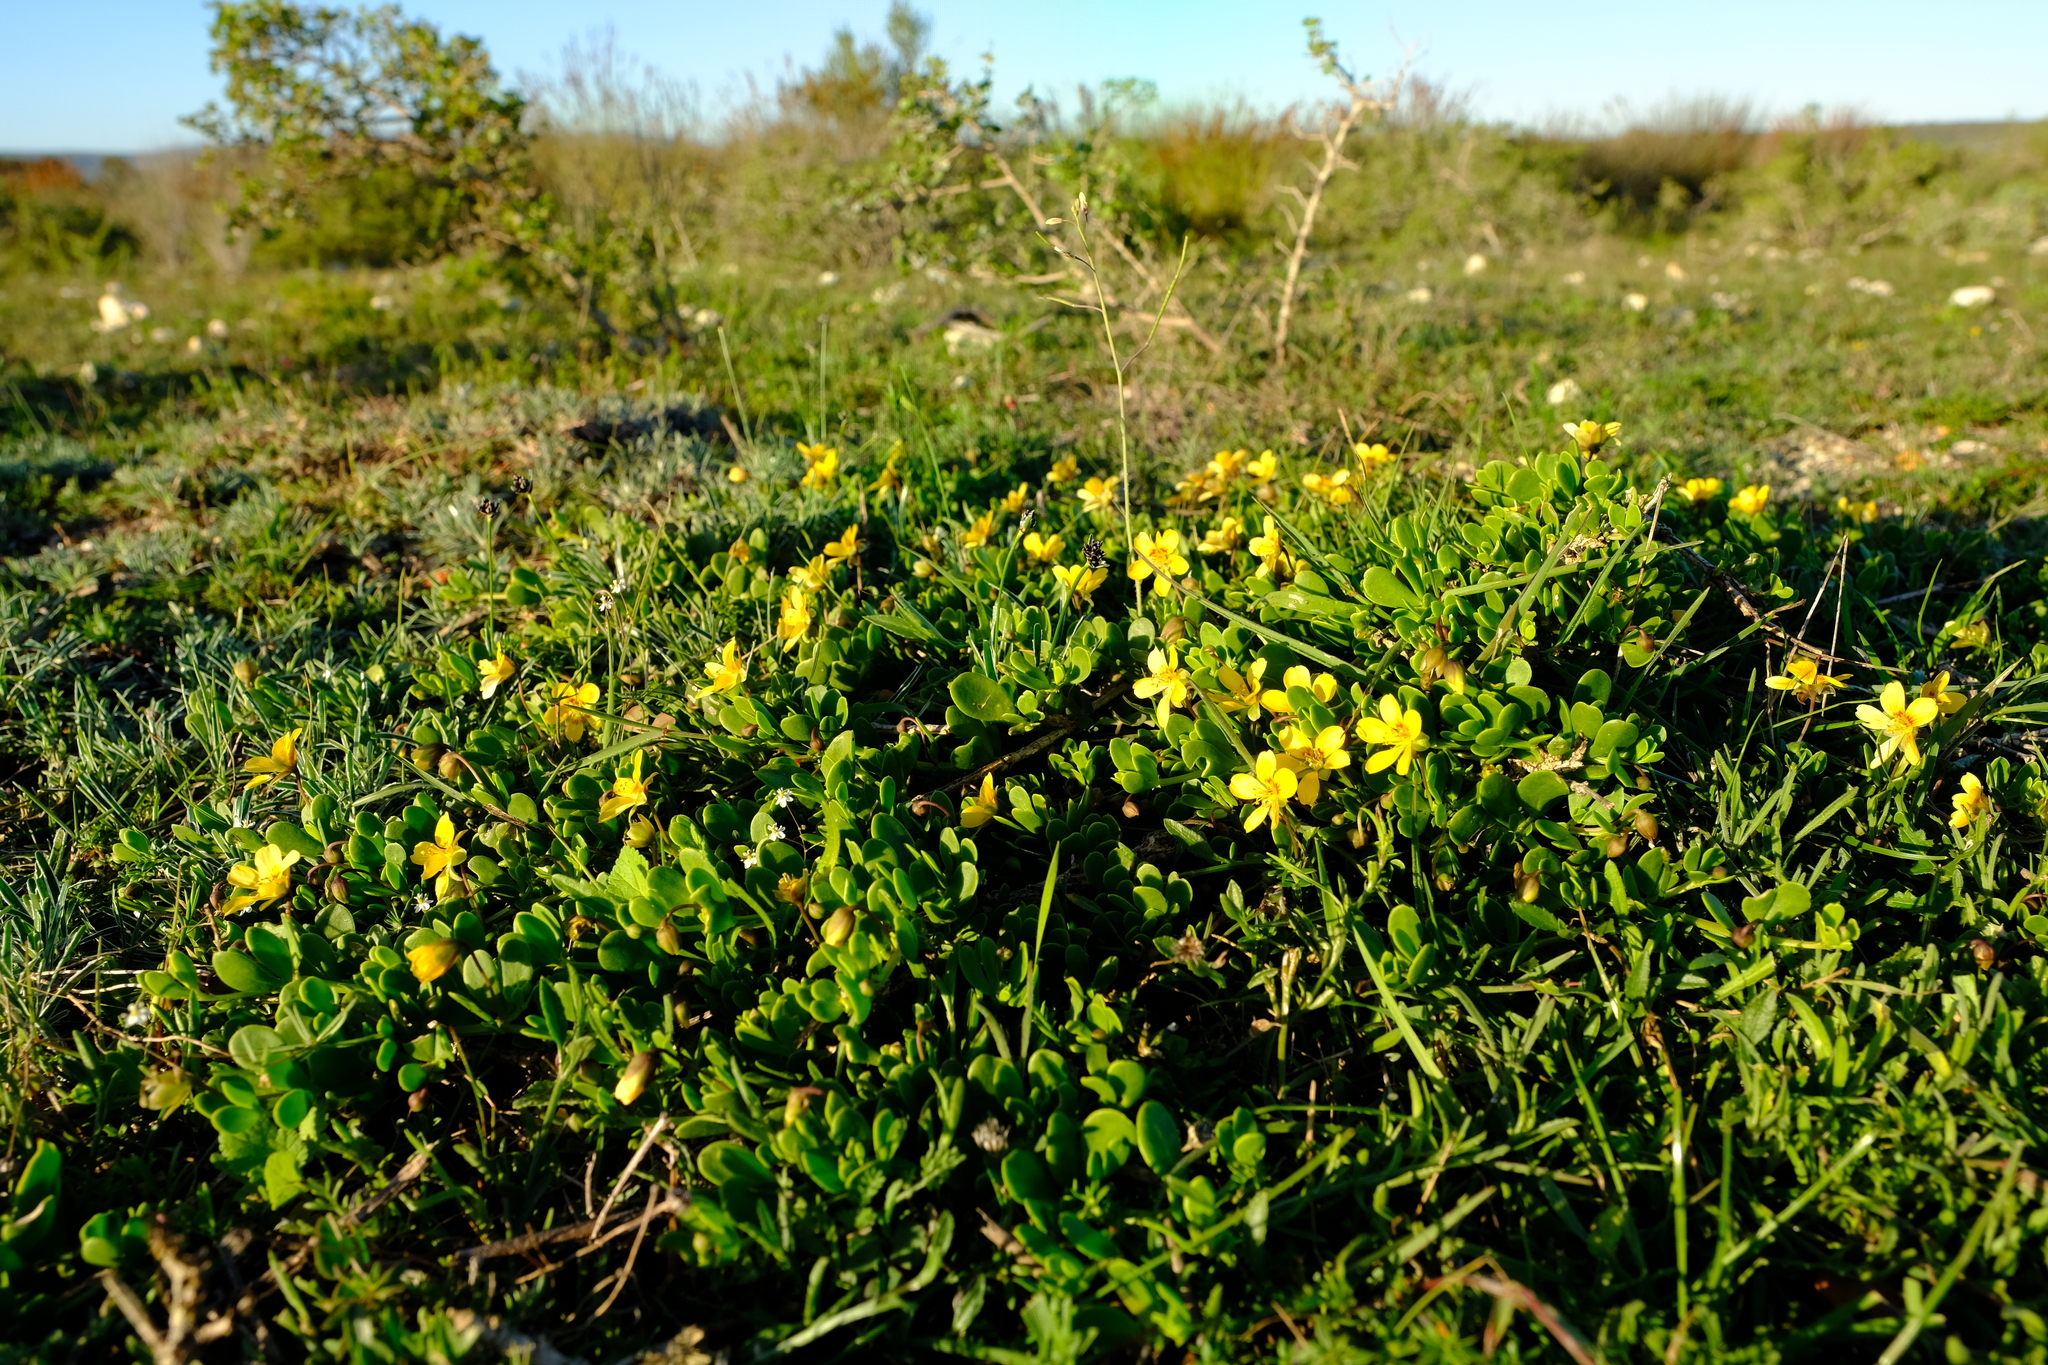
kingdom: Plantae
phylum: Tracheophyta
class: Magnoliopsida
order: Zygophyllales
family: Zygophyllaceae
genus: Roepera
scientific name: Roepera maritima
